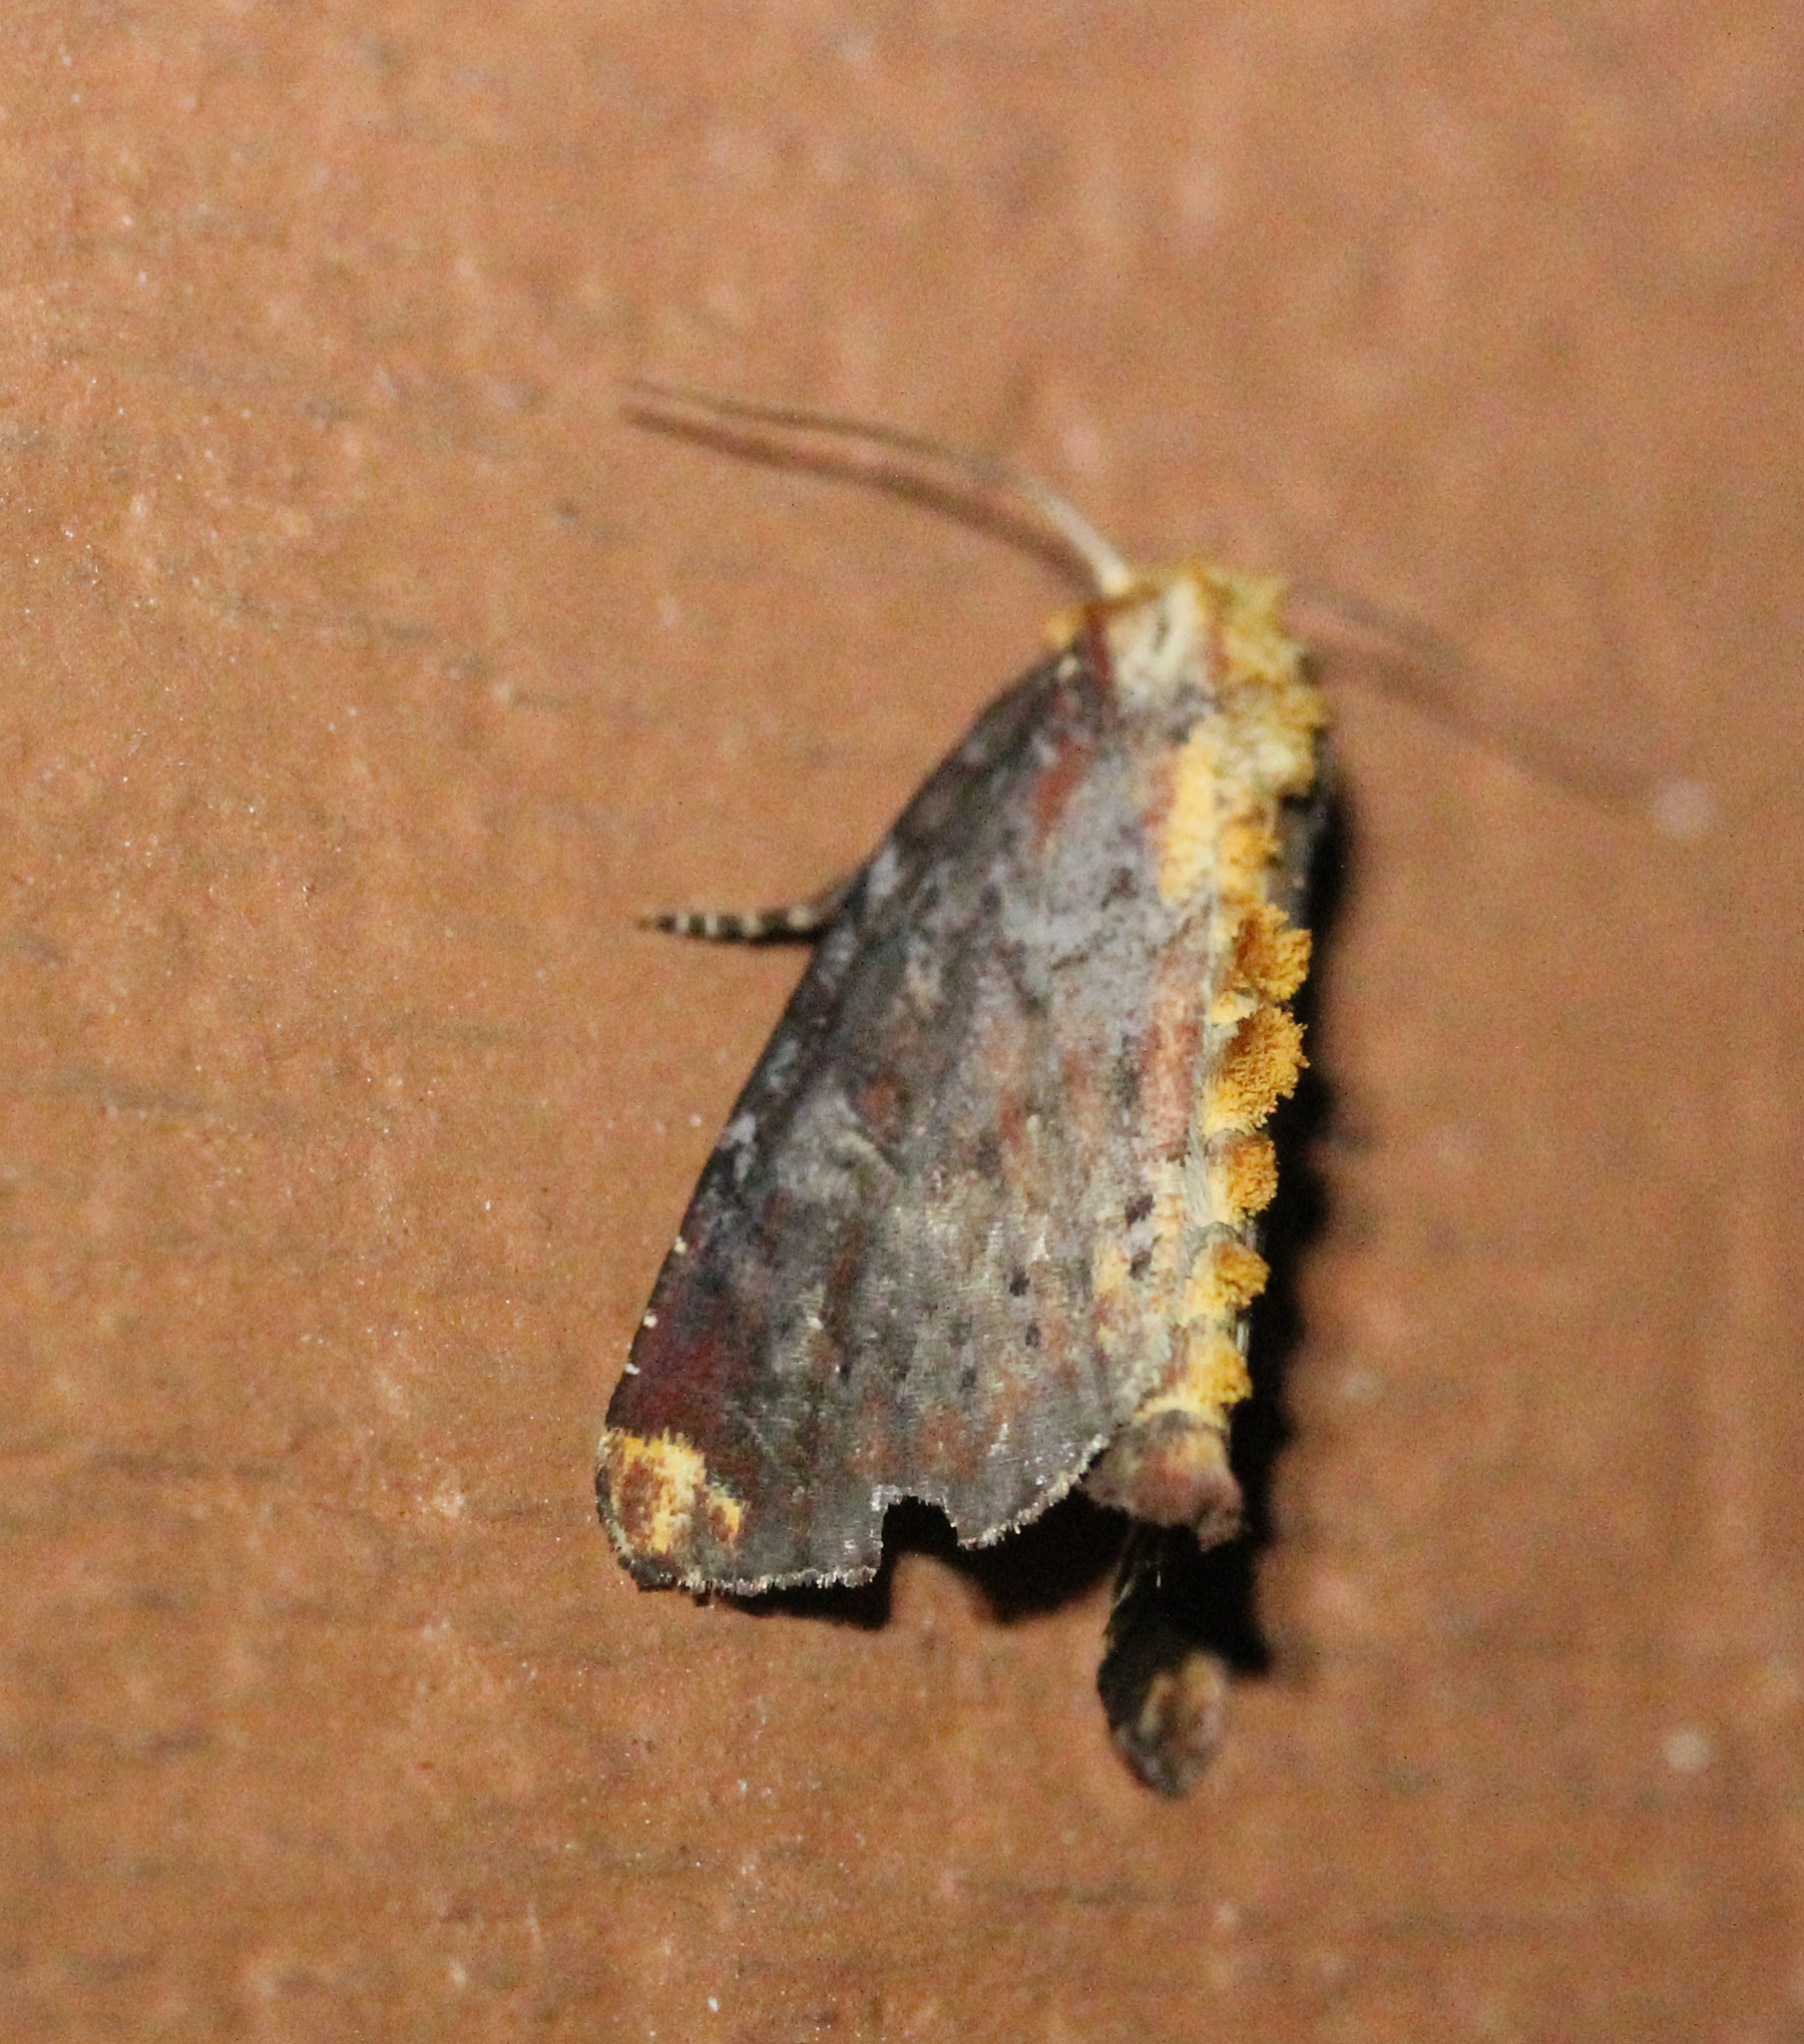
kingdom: Animalia
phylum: Arthropoda
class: Insecta
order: Lepidoptera
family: Noctuidae
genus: Achatodes
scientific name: Achatodes zeae
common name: Elder shoot borer
